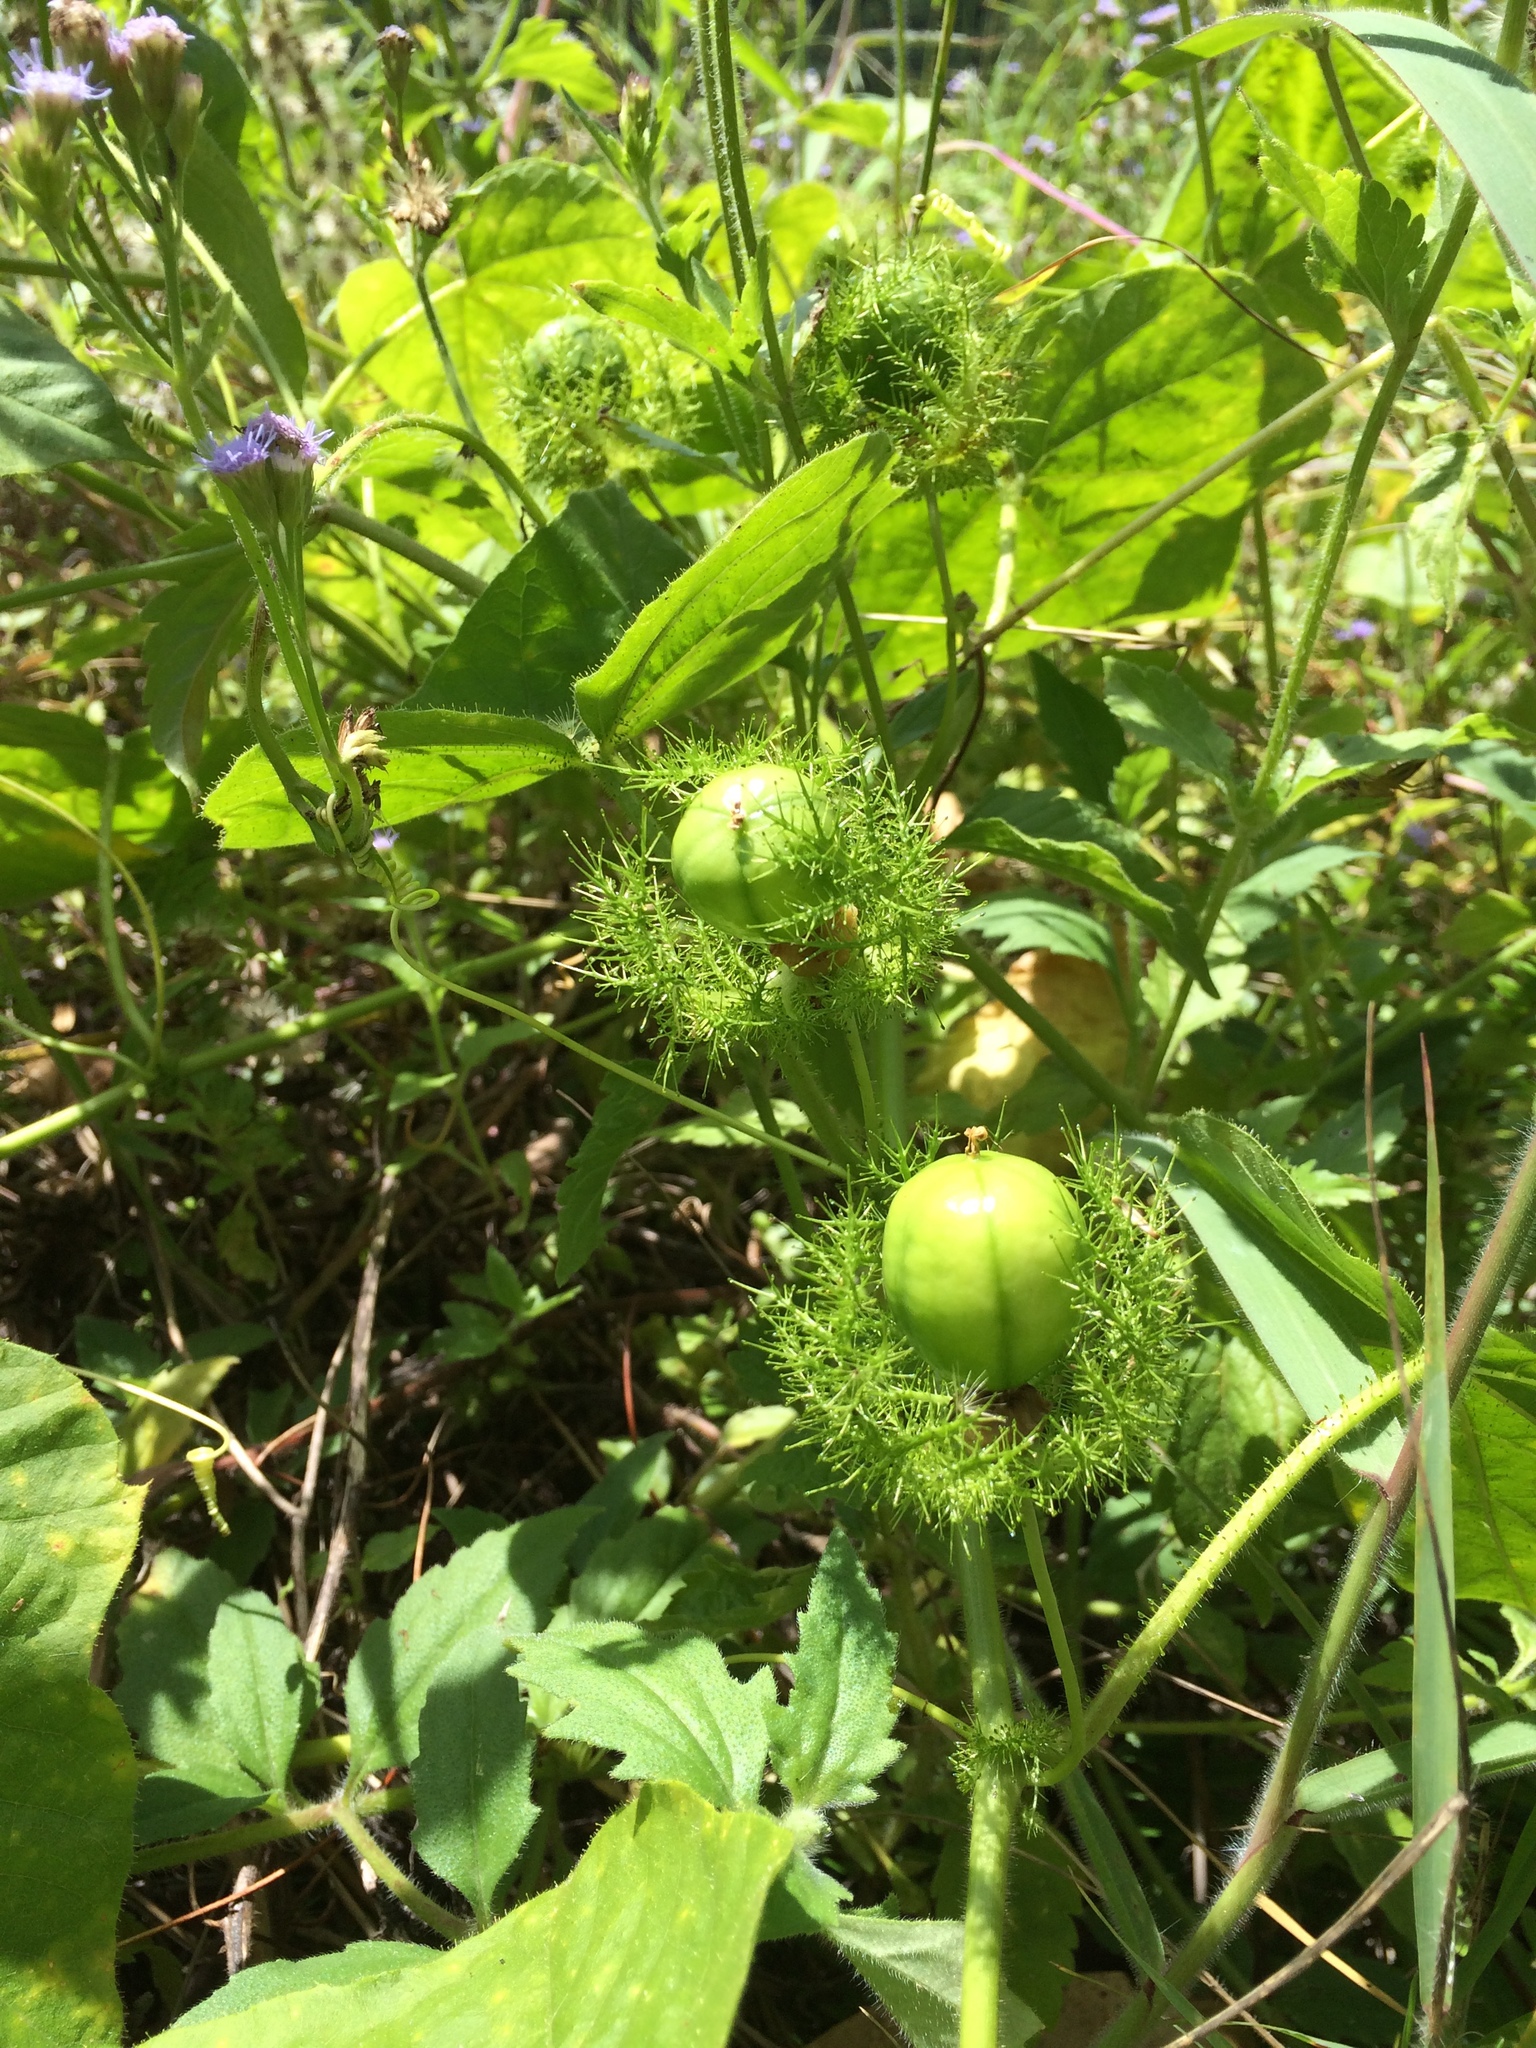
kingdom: Plantae
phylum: Tracheophyta
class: Magnoliopsida
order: Malpighiales
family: Passifloraceae
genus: Passiflora
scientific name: Passiflora foetida
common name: Fetid passionflower
